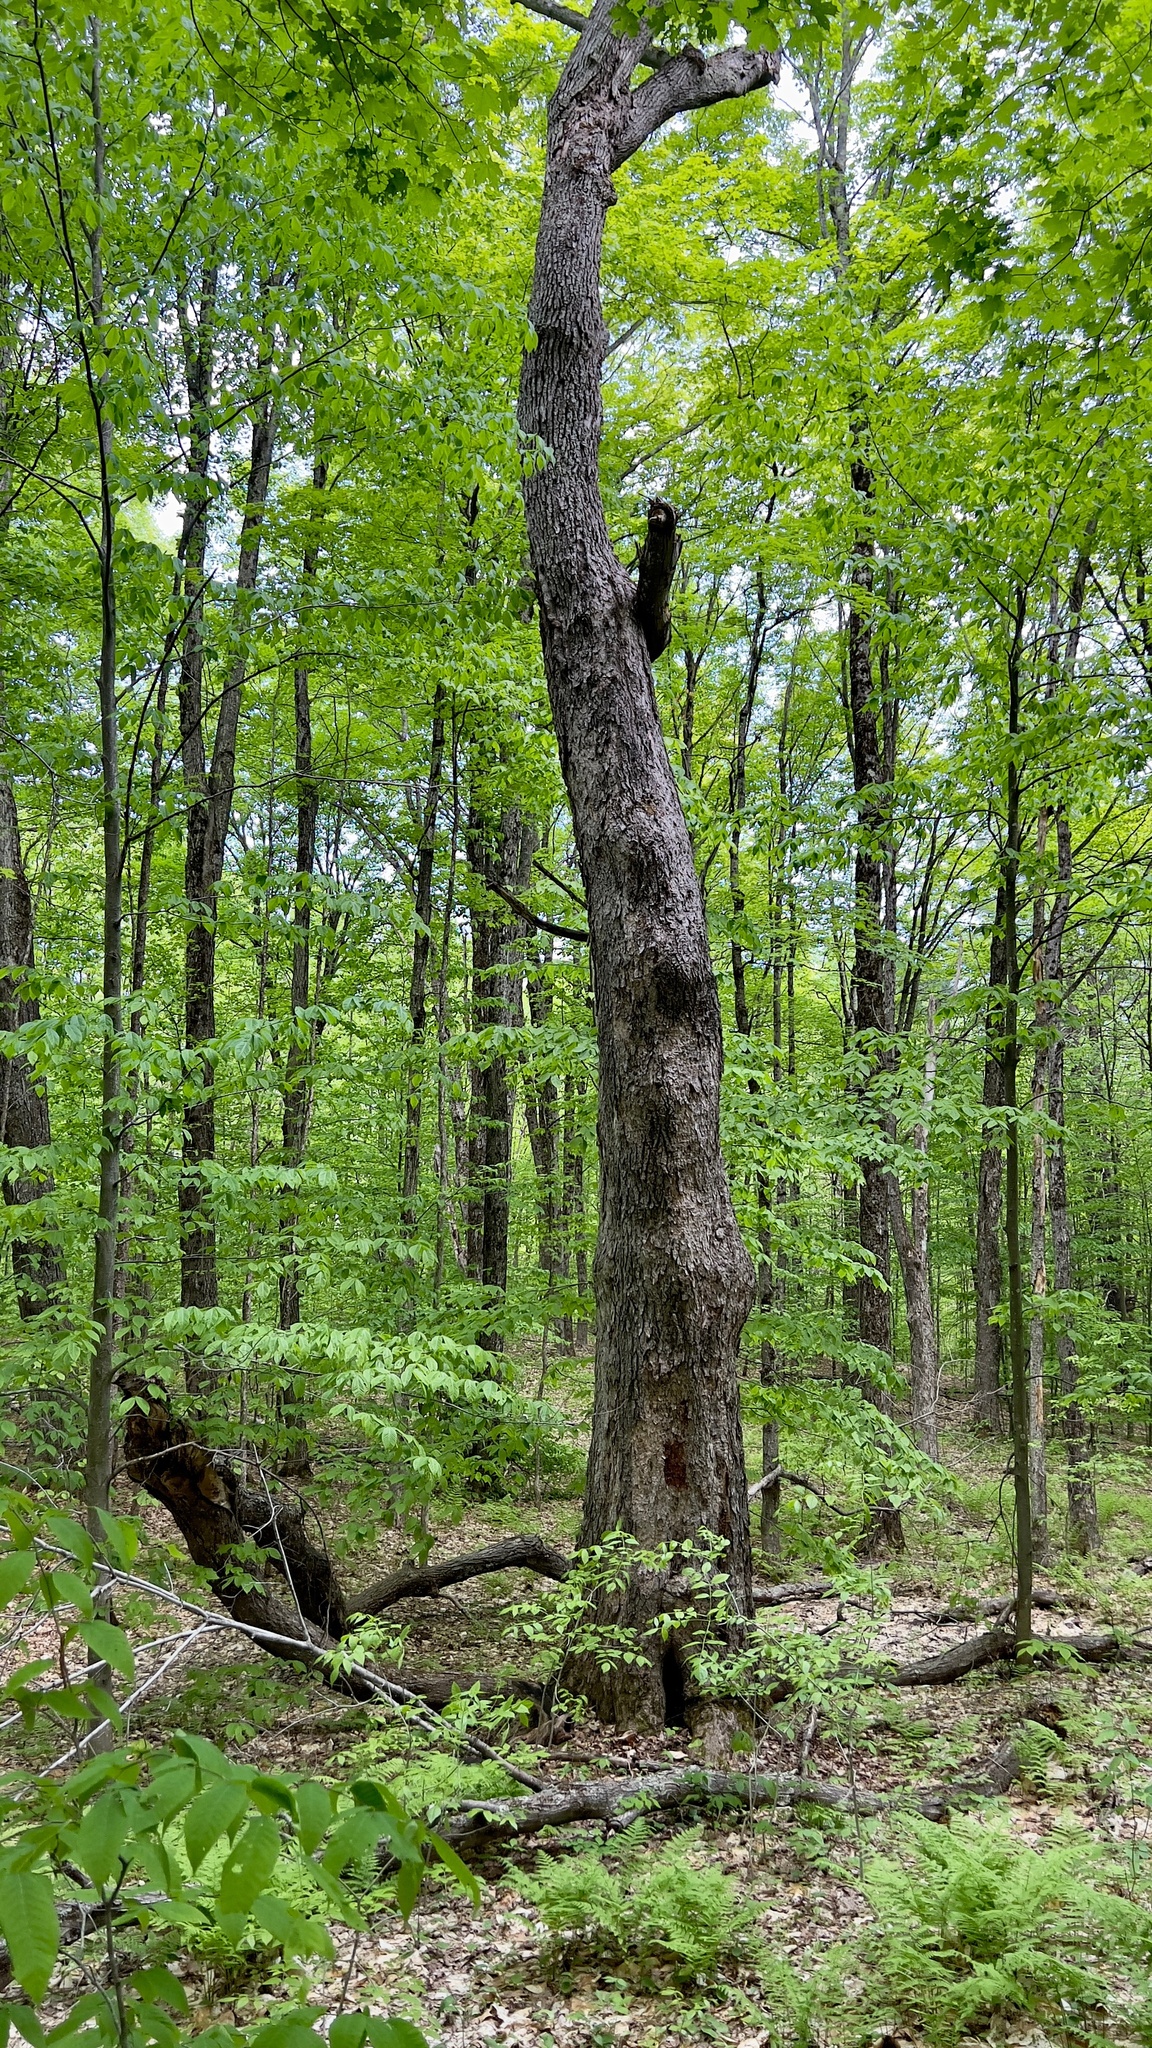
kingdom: Plantae
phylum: Tracheophyta
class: Magnoliopsida
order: Sapindales
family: Sapindaceae
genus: Acer
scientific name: Acer saccharum
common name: Sugar maple
